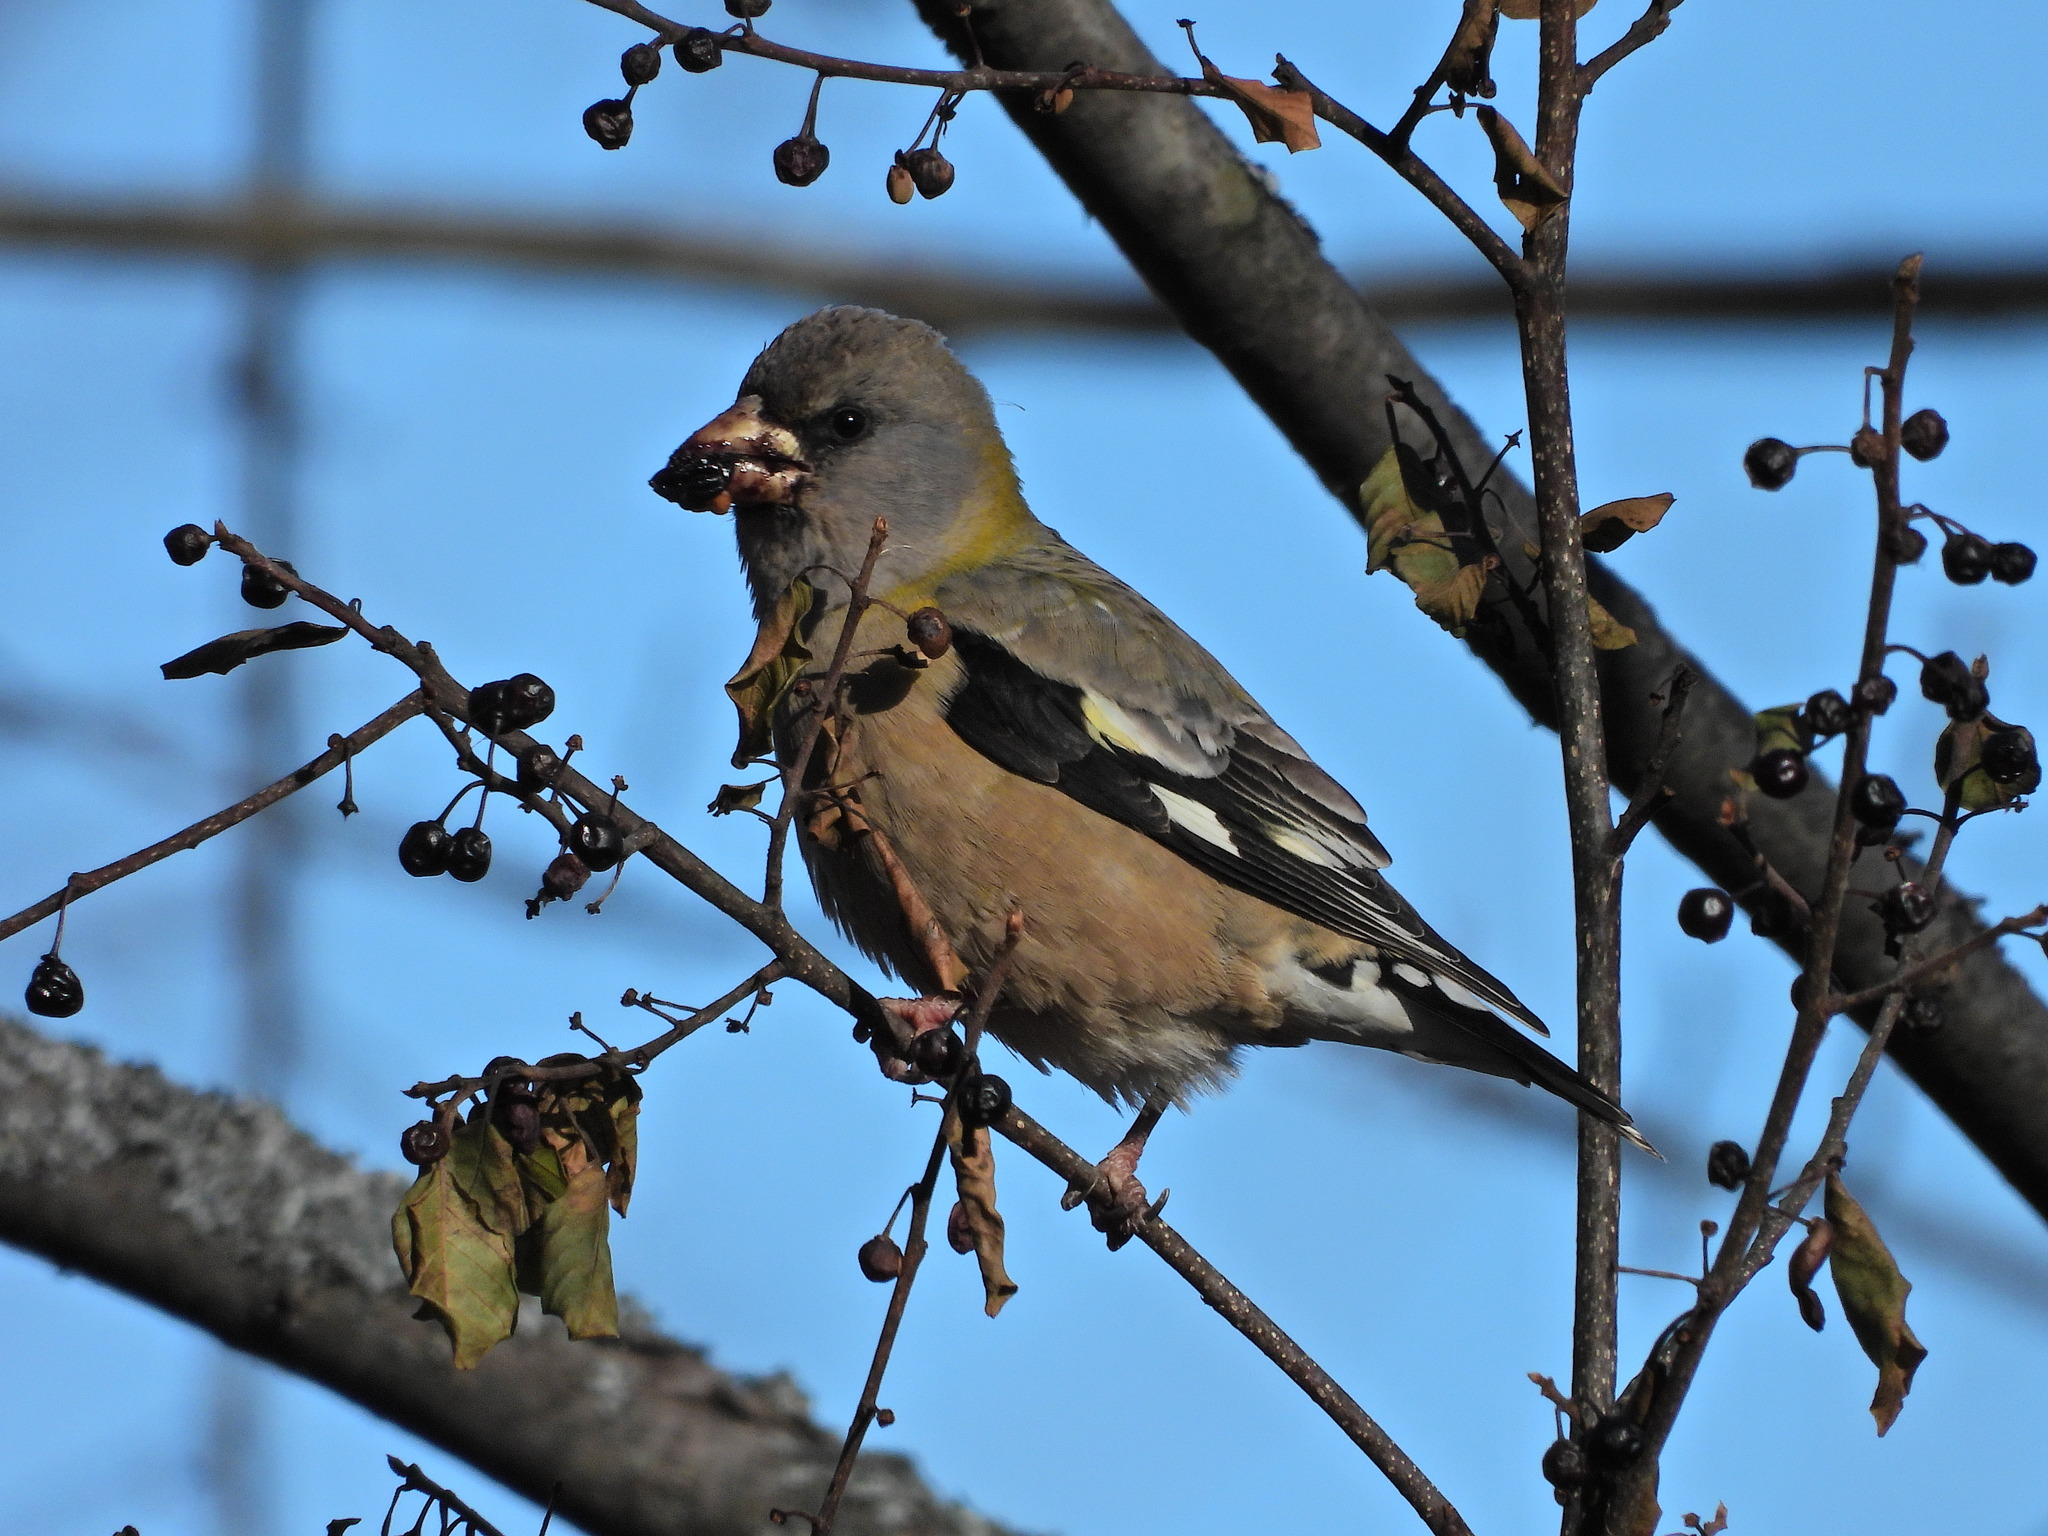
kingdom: Animalia
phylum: Chordata
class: Aves
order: Passeriformes
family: Fringillidae
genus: Hesperiphona
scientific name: Hesperiphona vespertina
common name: Evening grosbeak
